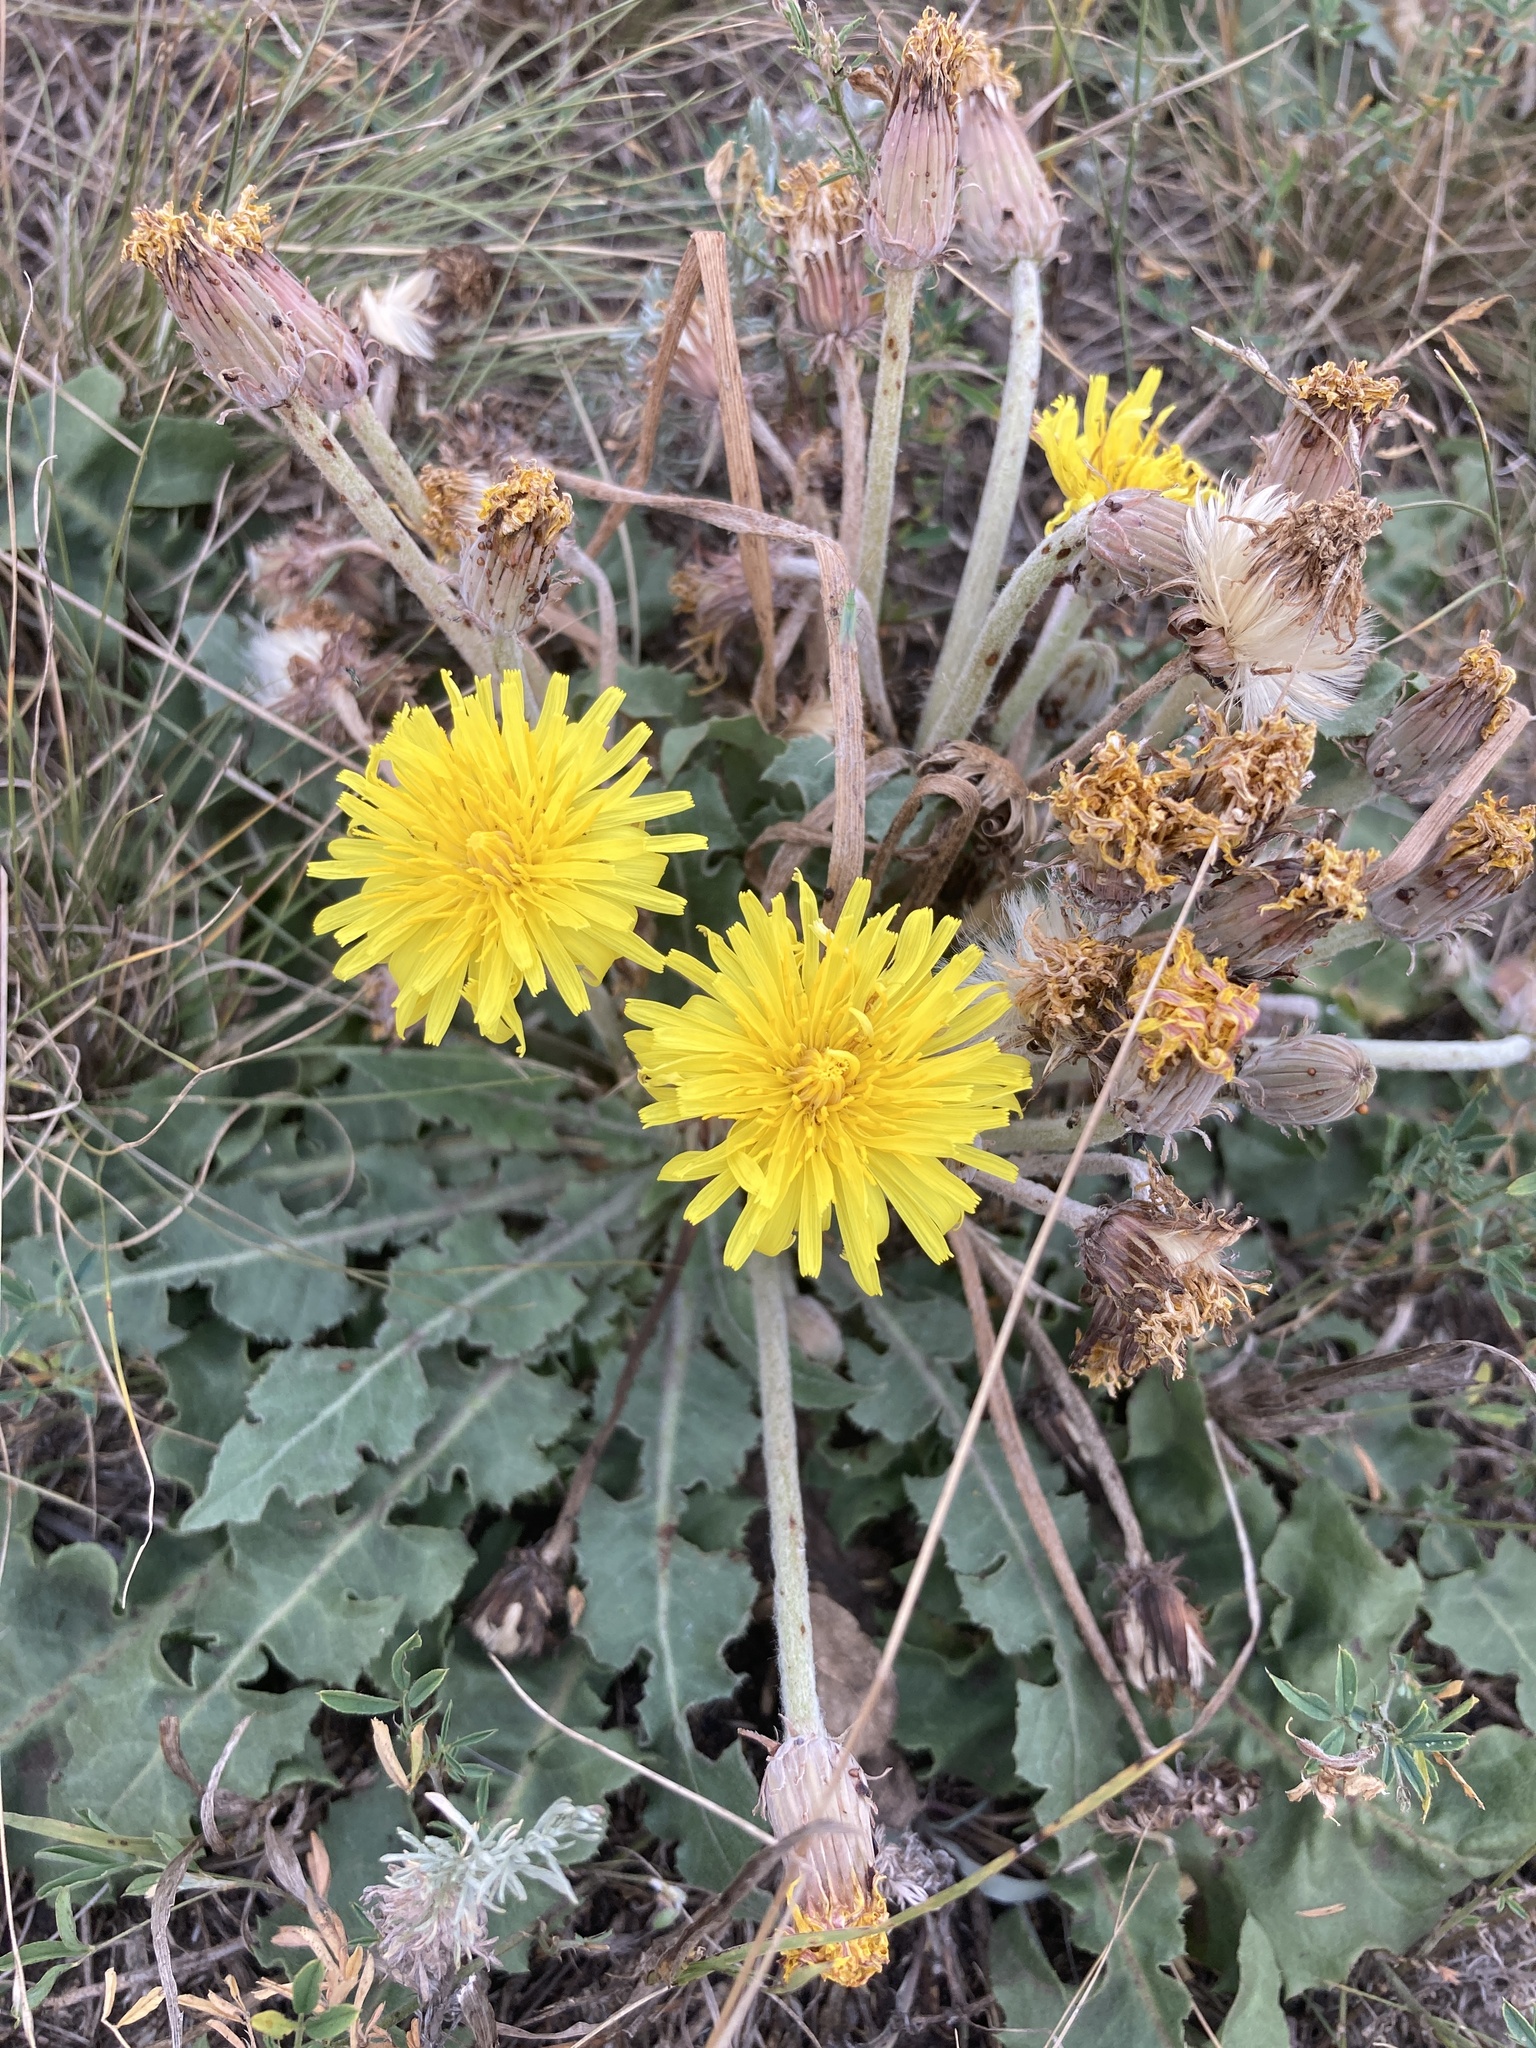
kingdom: Plantae
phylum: Tracheophyta
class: Magnoliopsida
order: Asterales
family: Asteraceae
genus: Taraxacum
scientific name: Taraxacum serotinum
